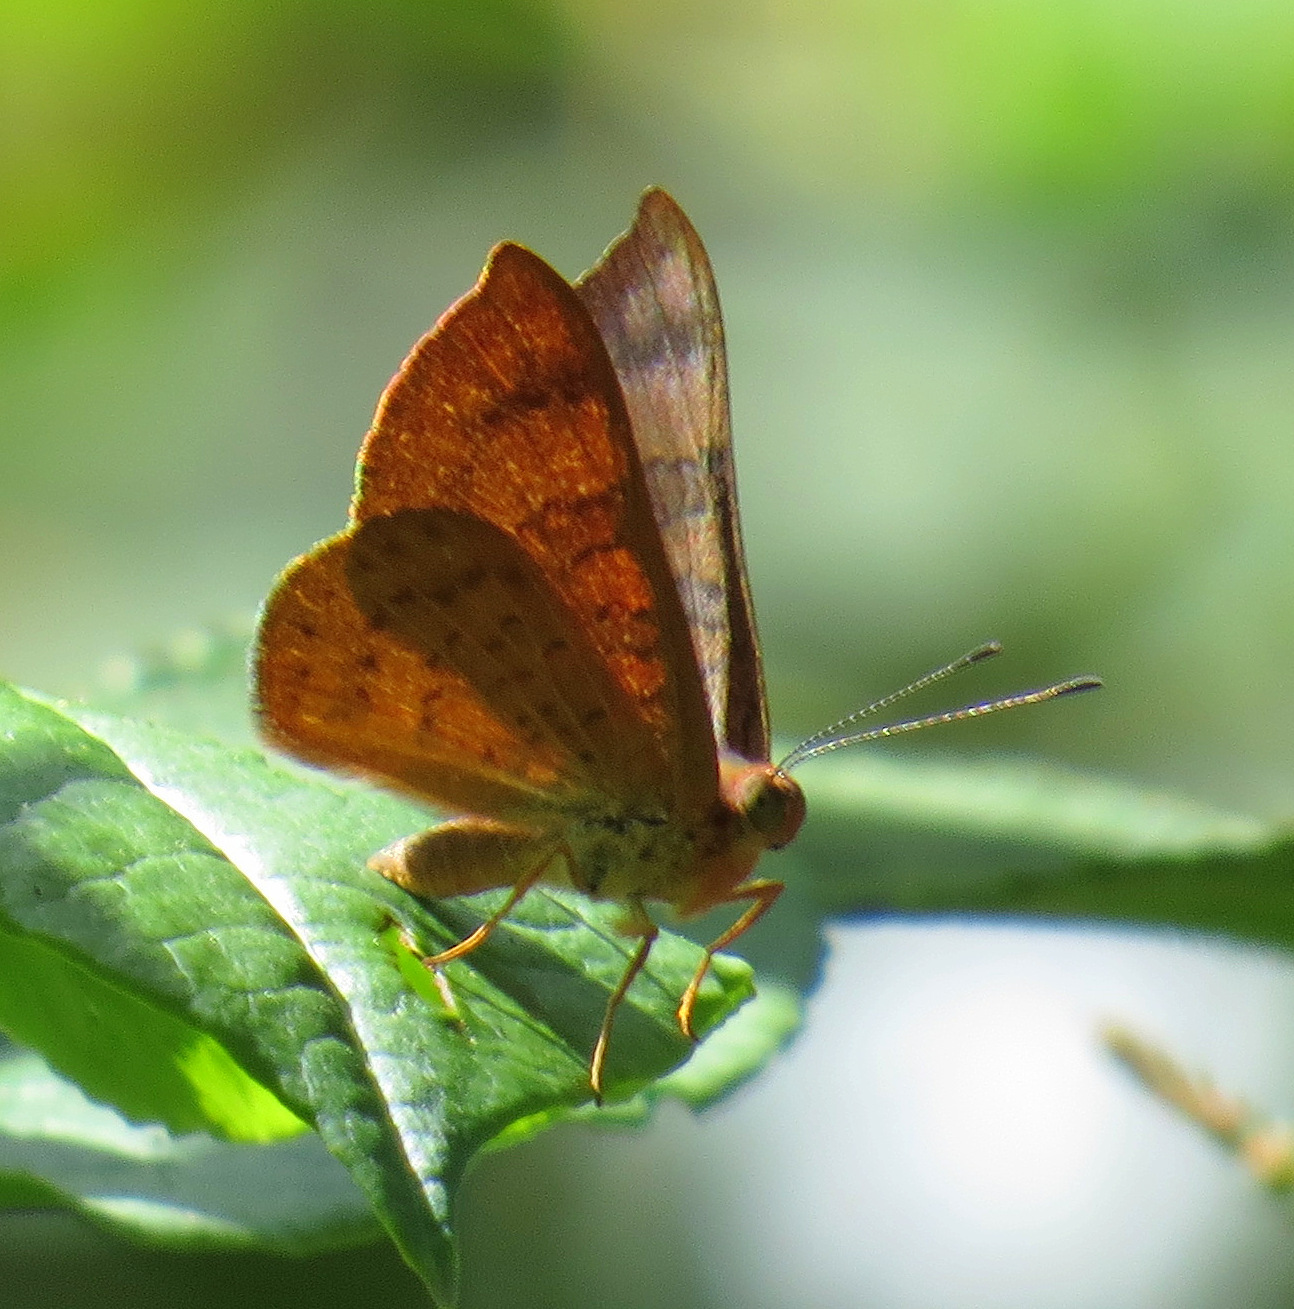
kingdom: Animalia
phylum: Arthropoda
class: Insecta
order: Lepidoptera
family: Lycaenidae
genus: Emesis
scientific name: Emesis tenedia
